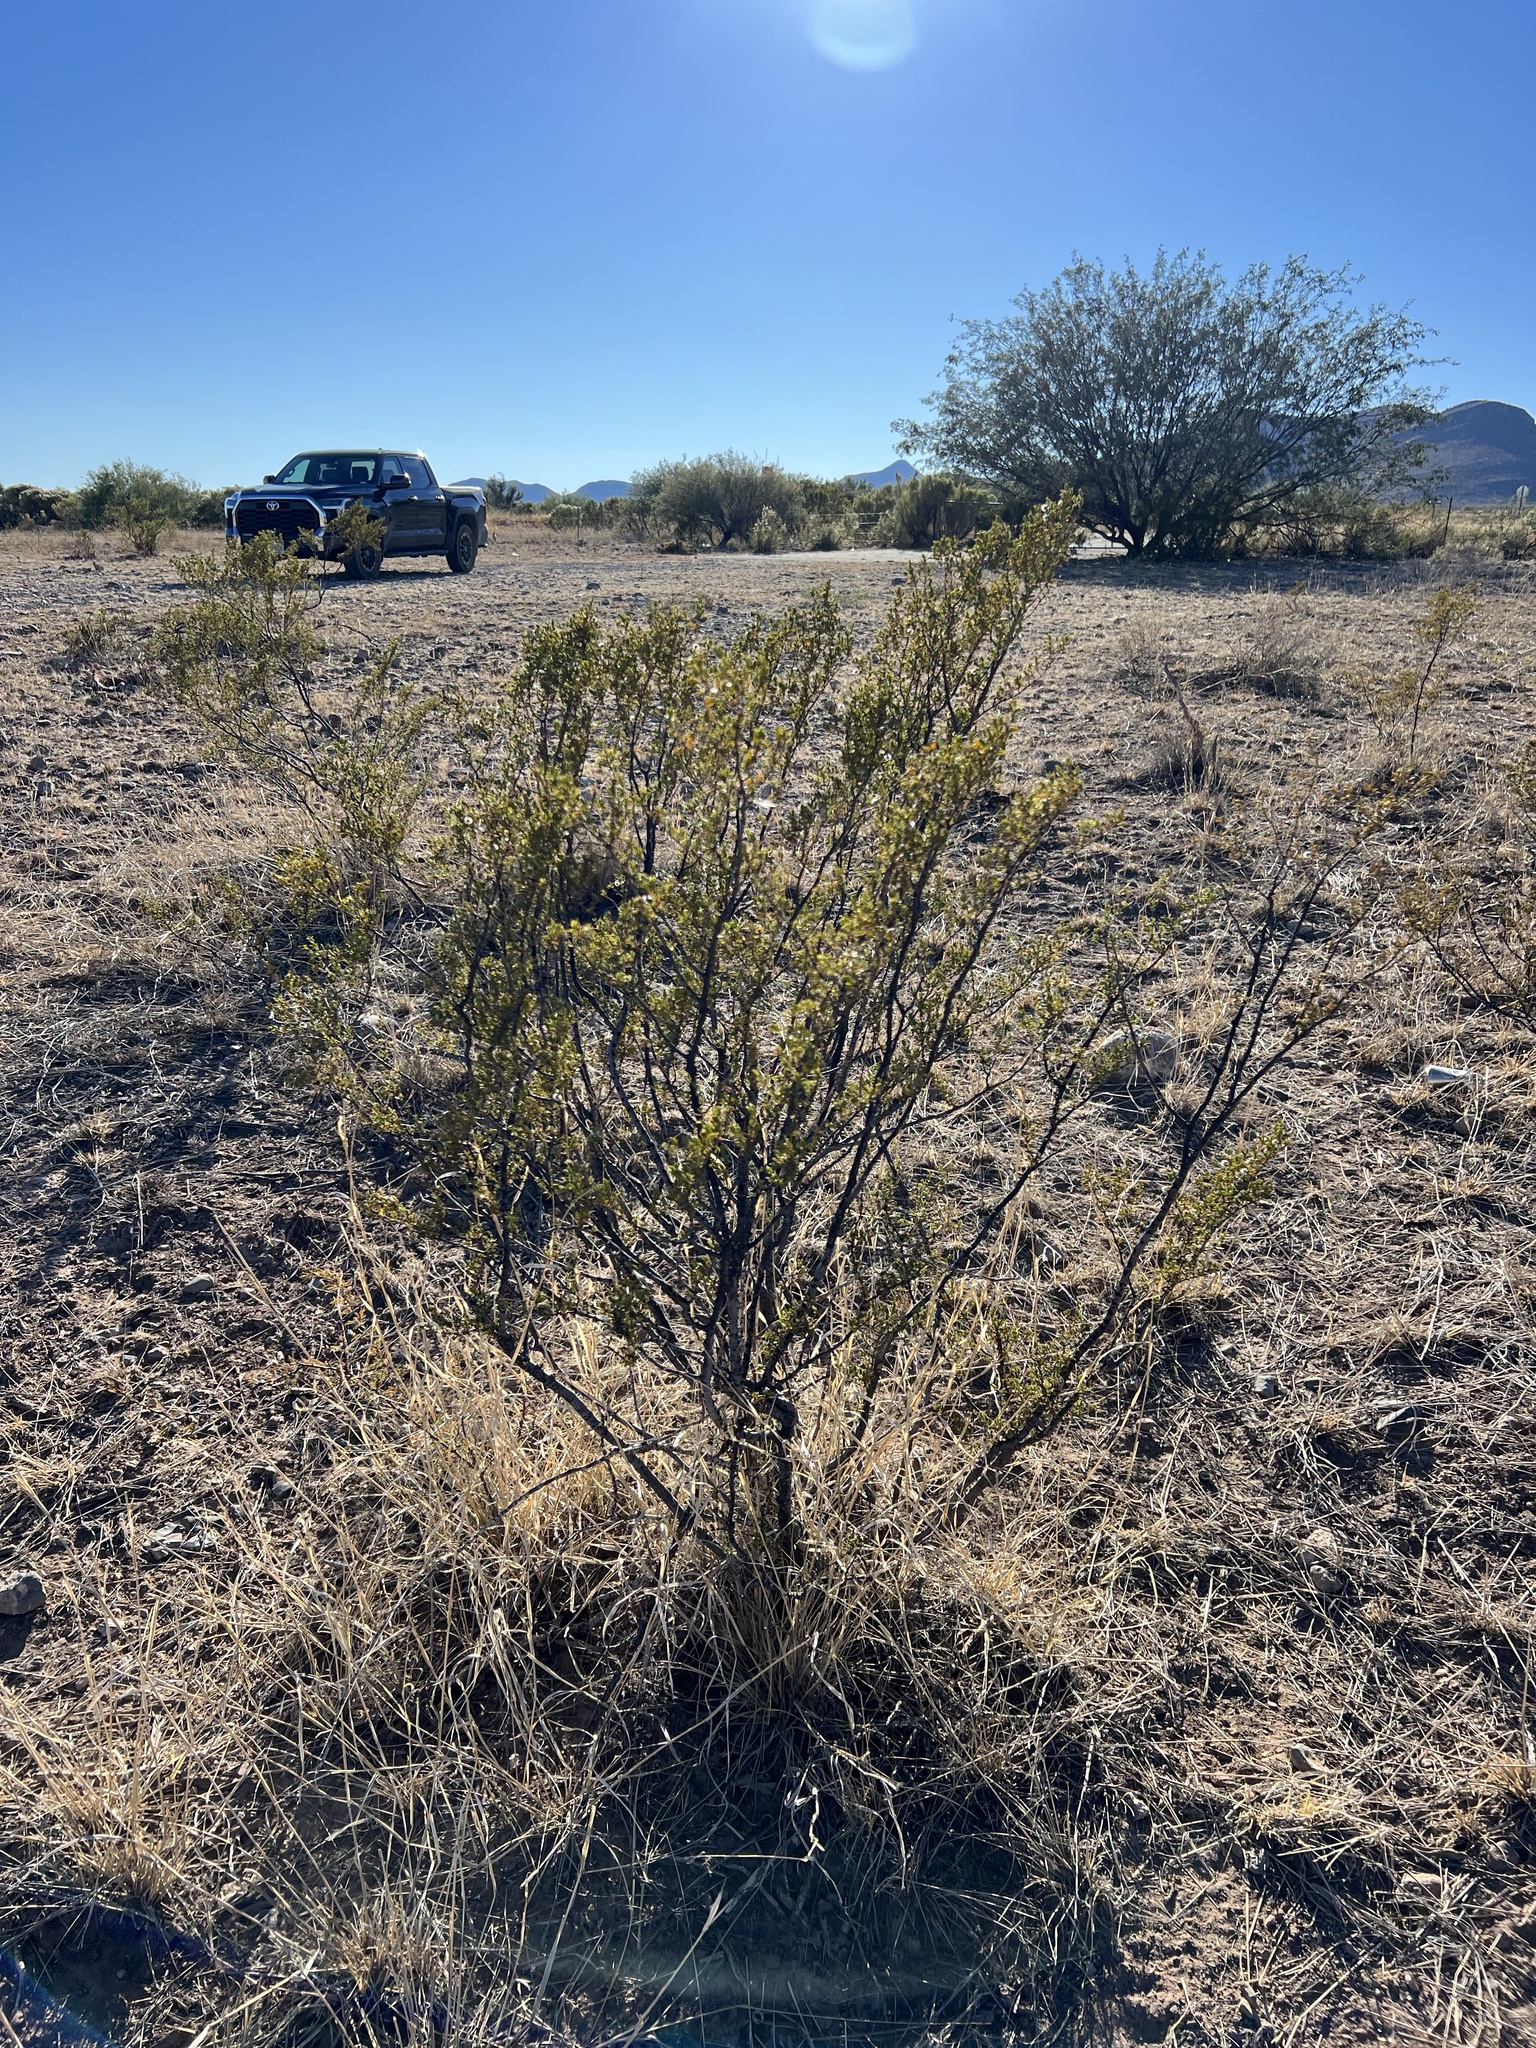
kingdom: Plantae
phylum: Tracheophyta
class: Magnoliopsida
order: Zygophyllales
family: Zygophyllaceae
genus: Larrea
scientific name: Larrea tridentata
